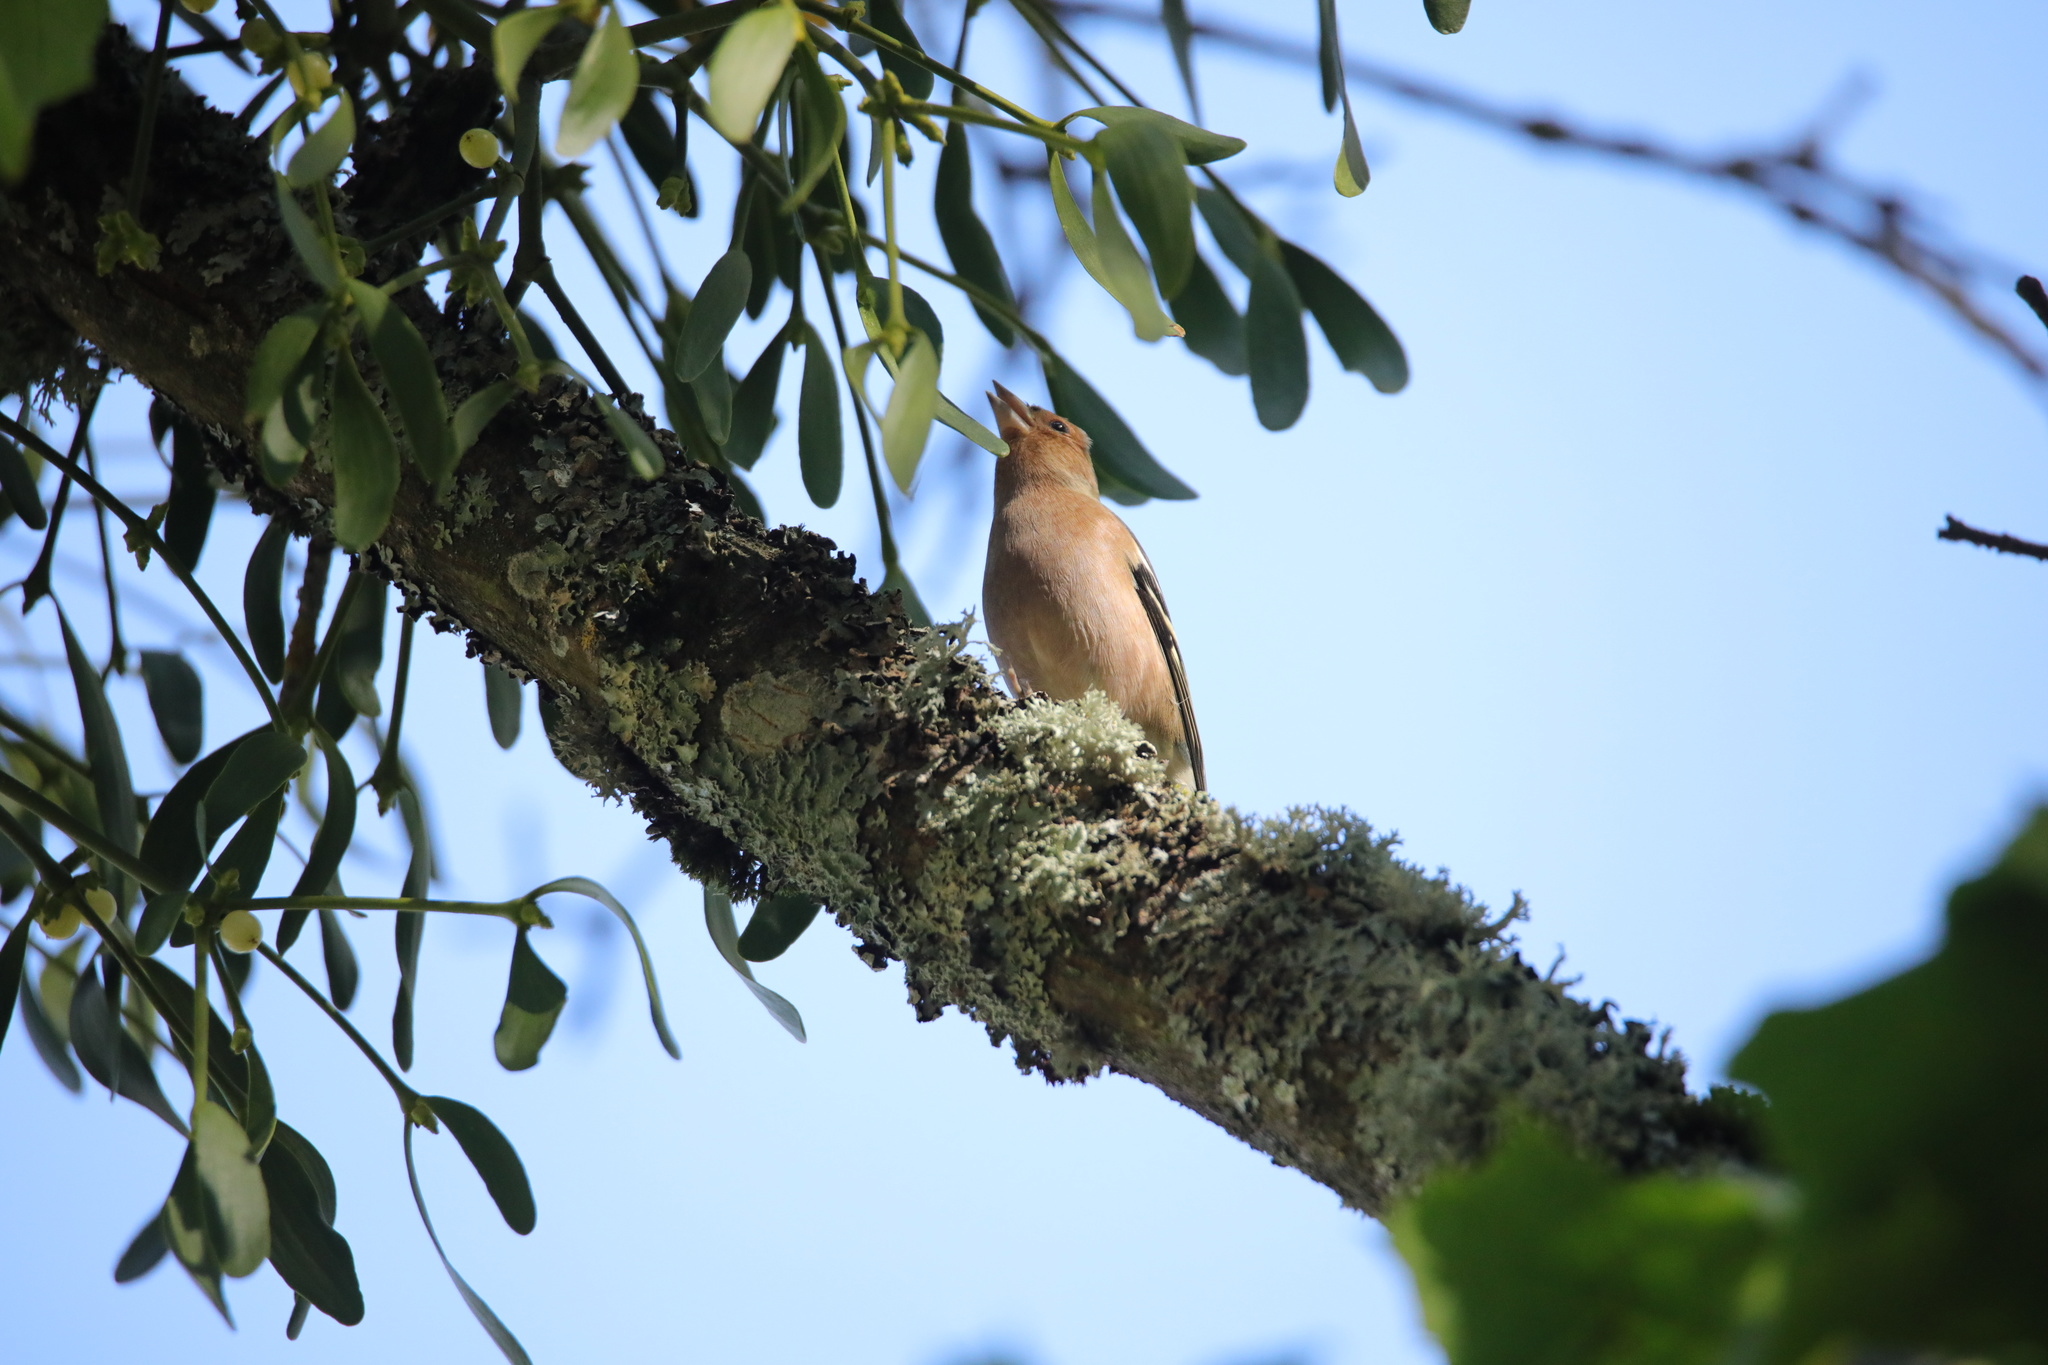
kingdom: Animalia
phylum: Chordata
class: Aves
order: Passeriformes
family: Fringillidae
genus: Fringilla
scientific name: Fringilla coelebs
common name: Common chaffinch
